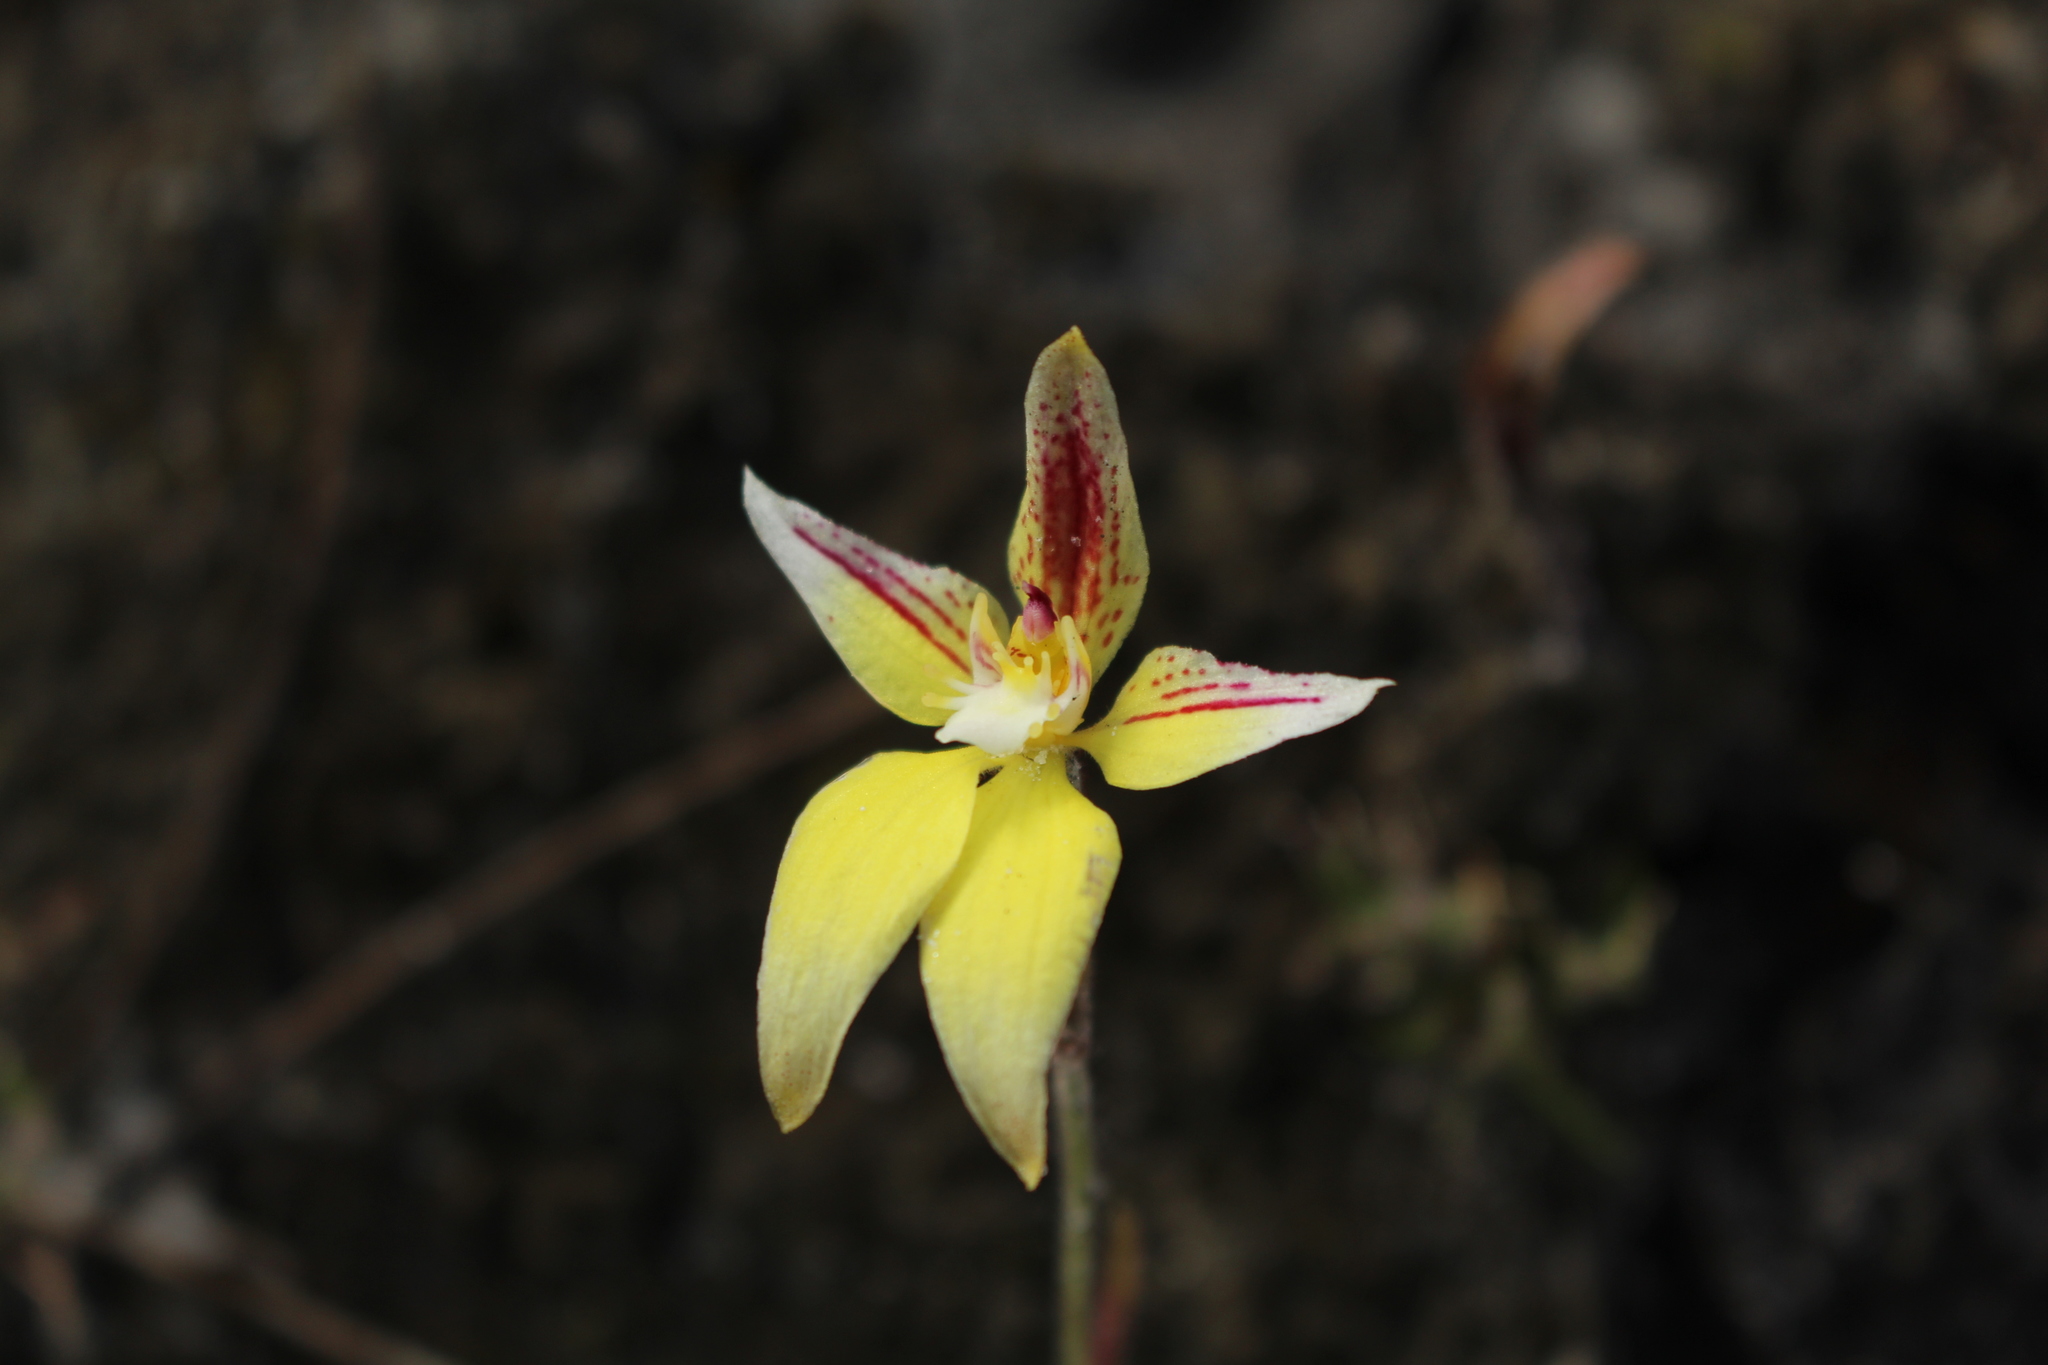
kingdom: Plantae
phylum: Tracheophyta
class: Liliopsida
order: Asparagales
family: Orchidaceae
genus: Caladenia
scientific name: Caladenia flava
